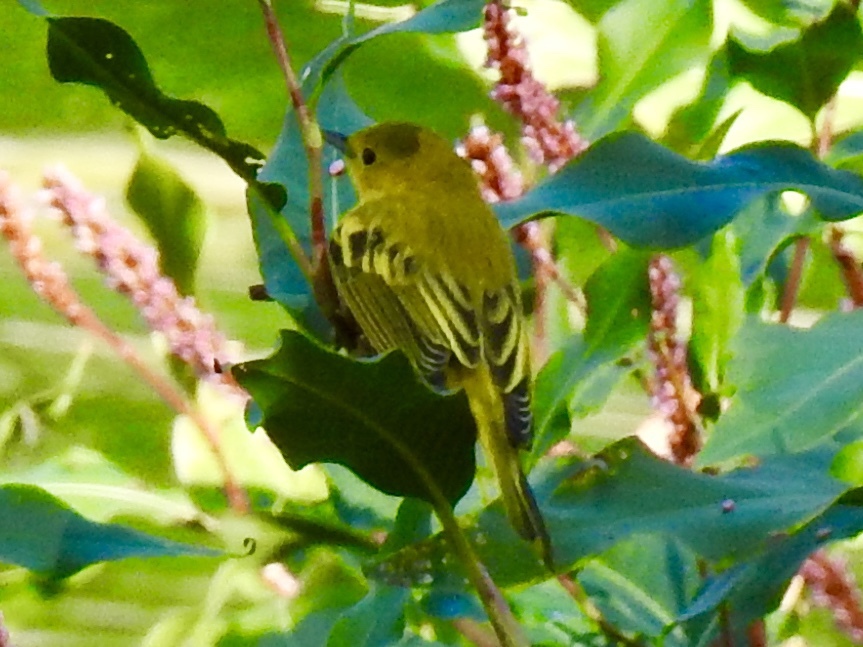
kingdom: Animalia
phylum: Chordata
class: Aves
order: Passeriformes
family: Parulidae
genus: Setophaga
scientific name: Setophaga petechia
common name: Yellow warbler
